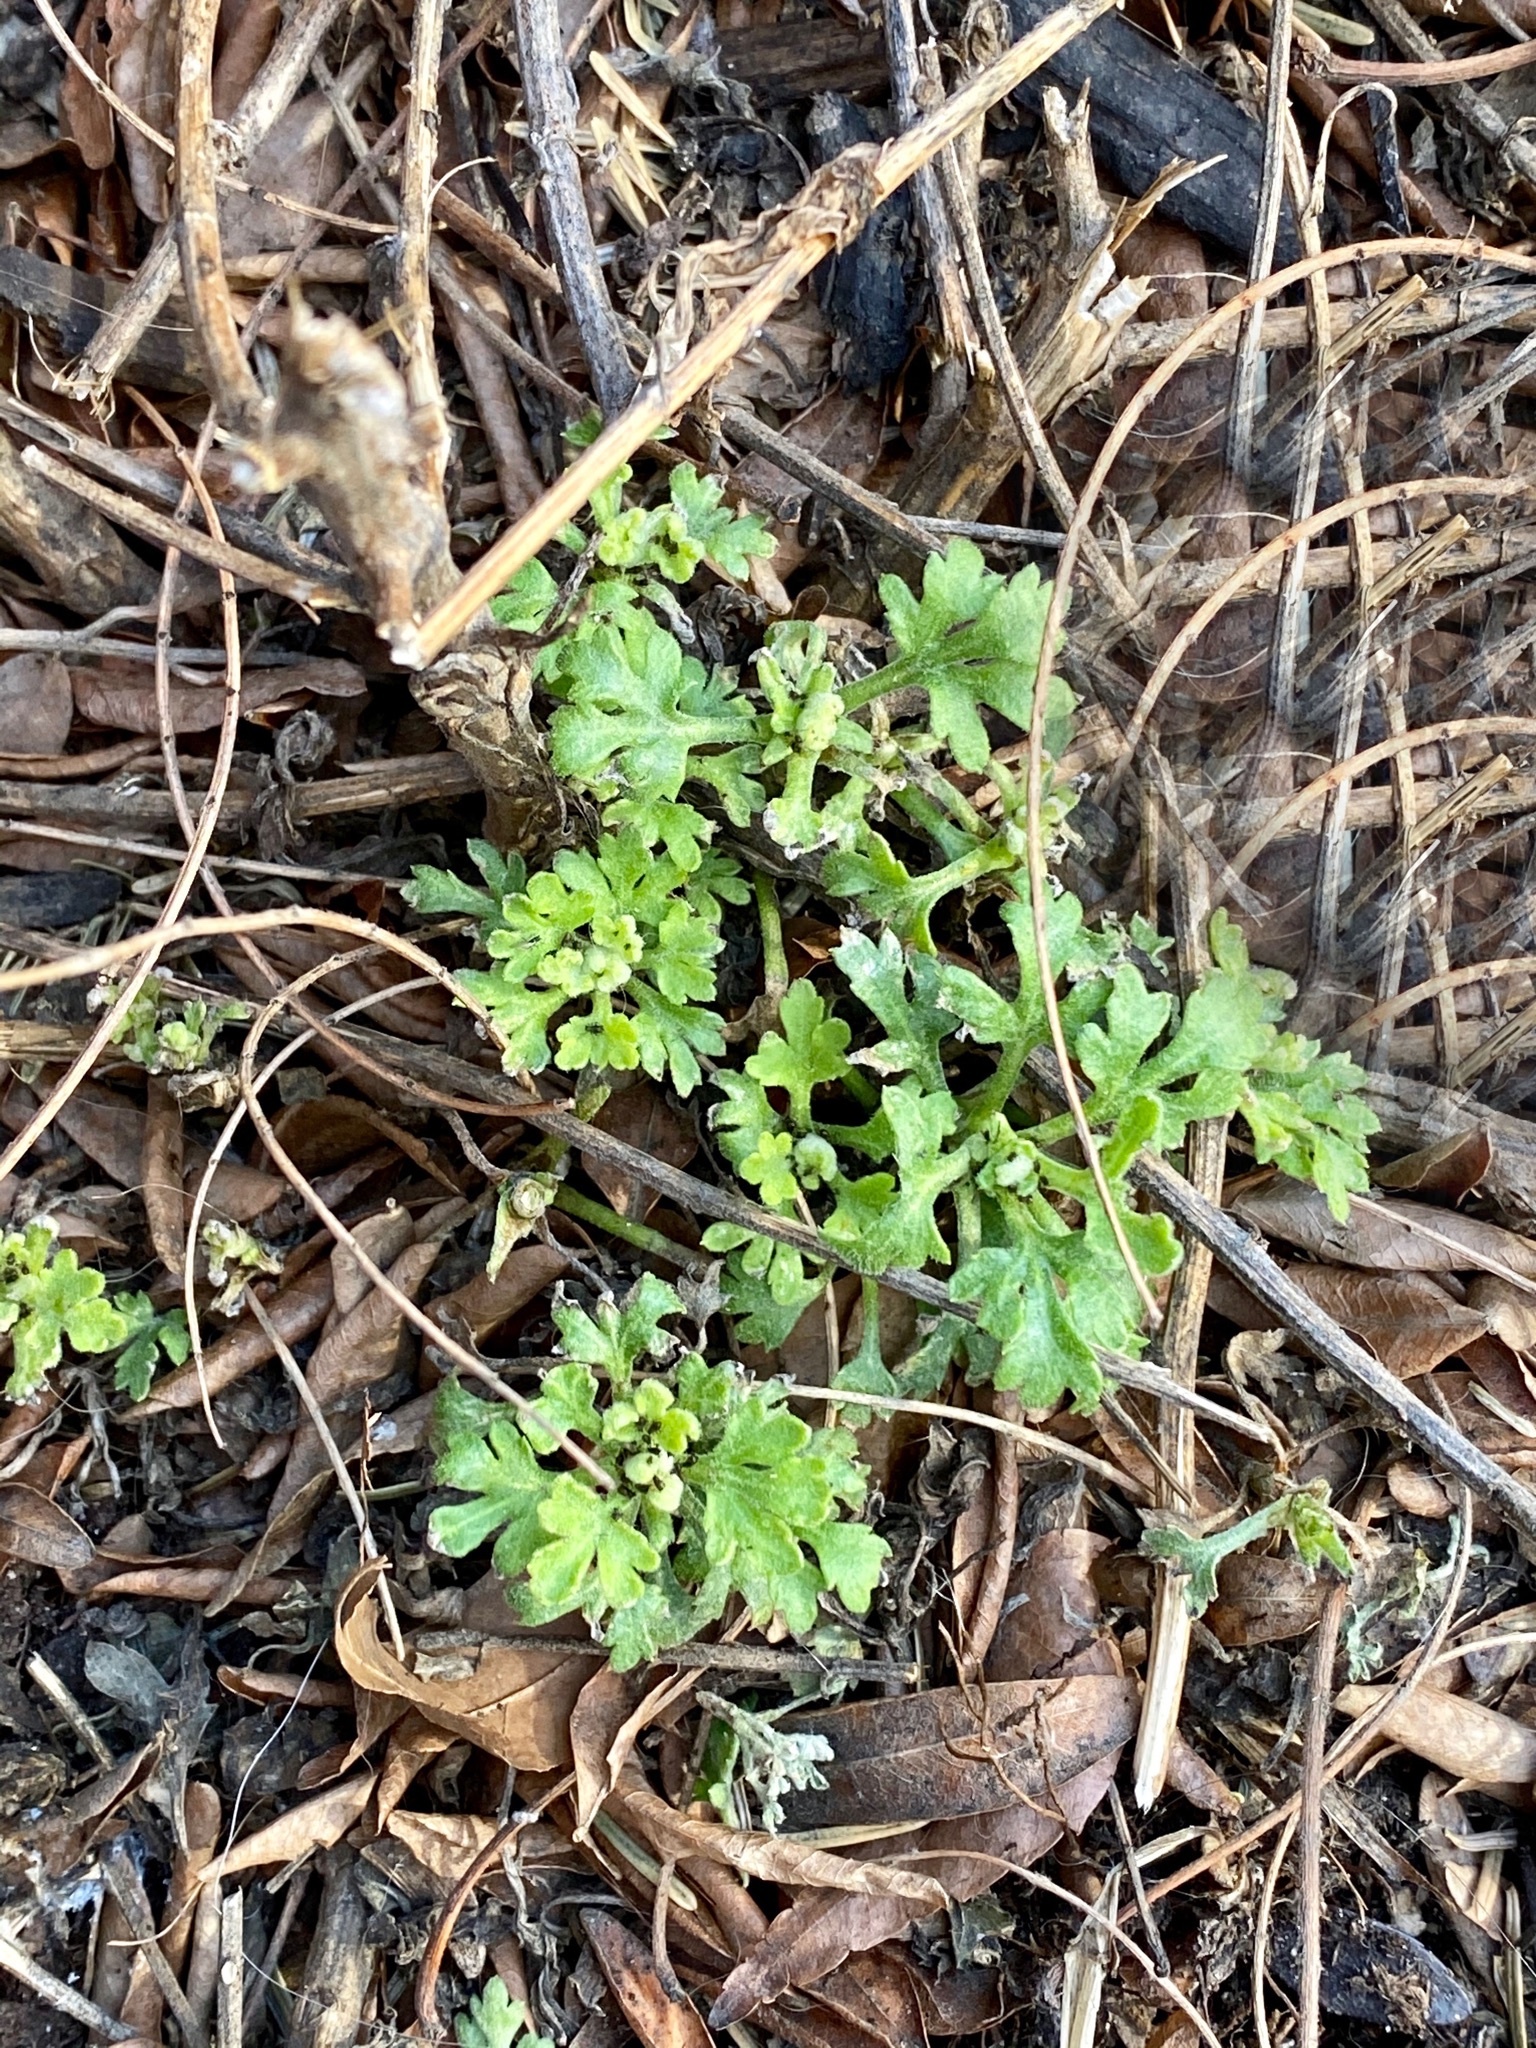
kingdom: Plantae
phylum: Tracheophyta
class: Magnoliopsida
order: Asterales
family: Asteraceae
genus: Artemisia
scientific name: Artemisia vulgaris
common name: Mugwort
